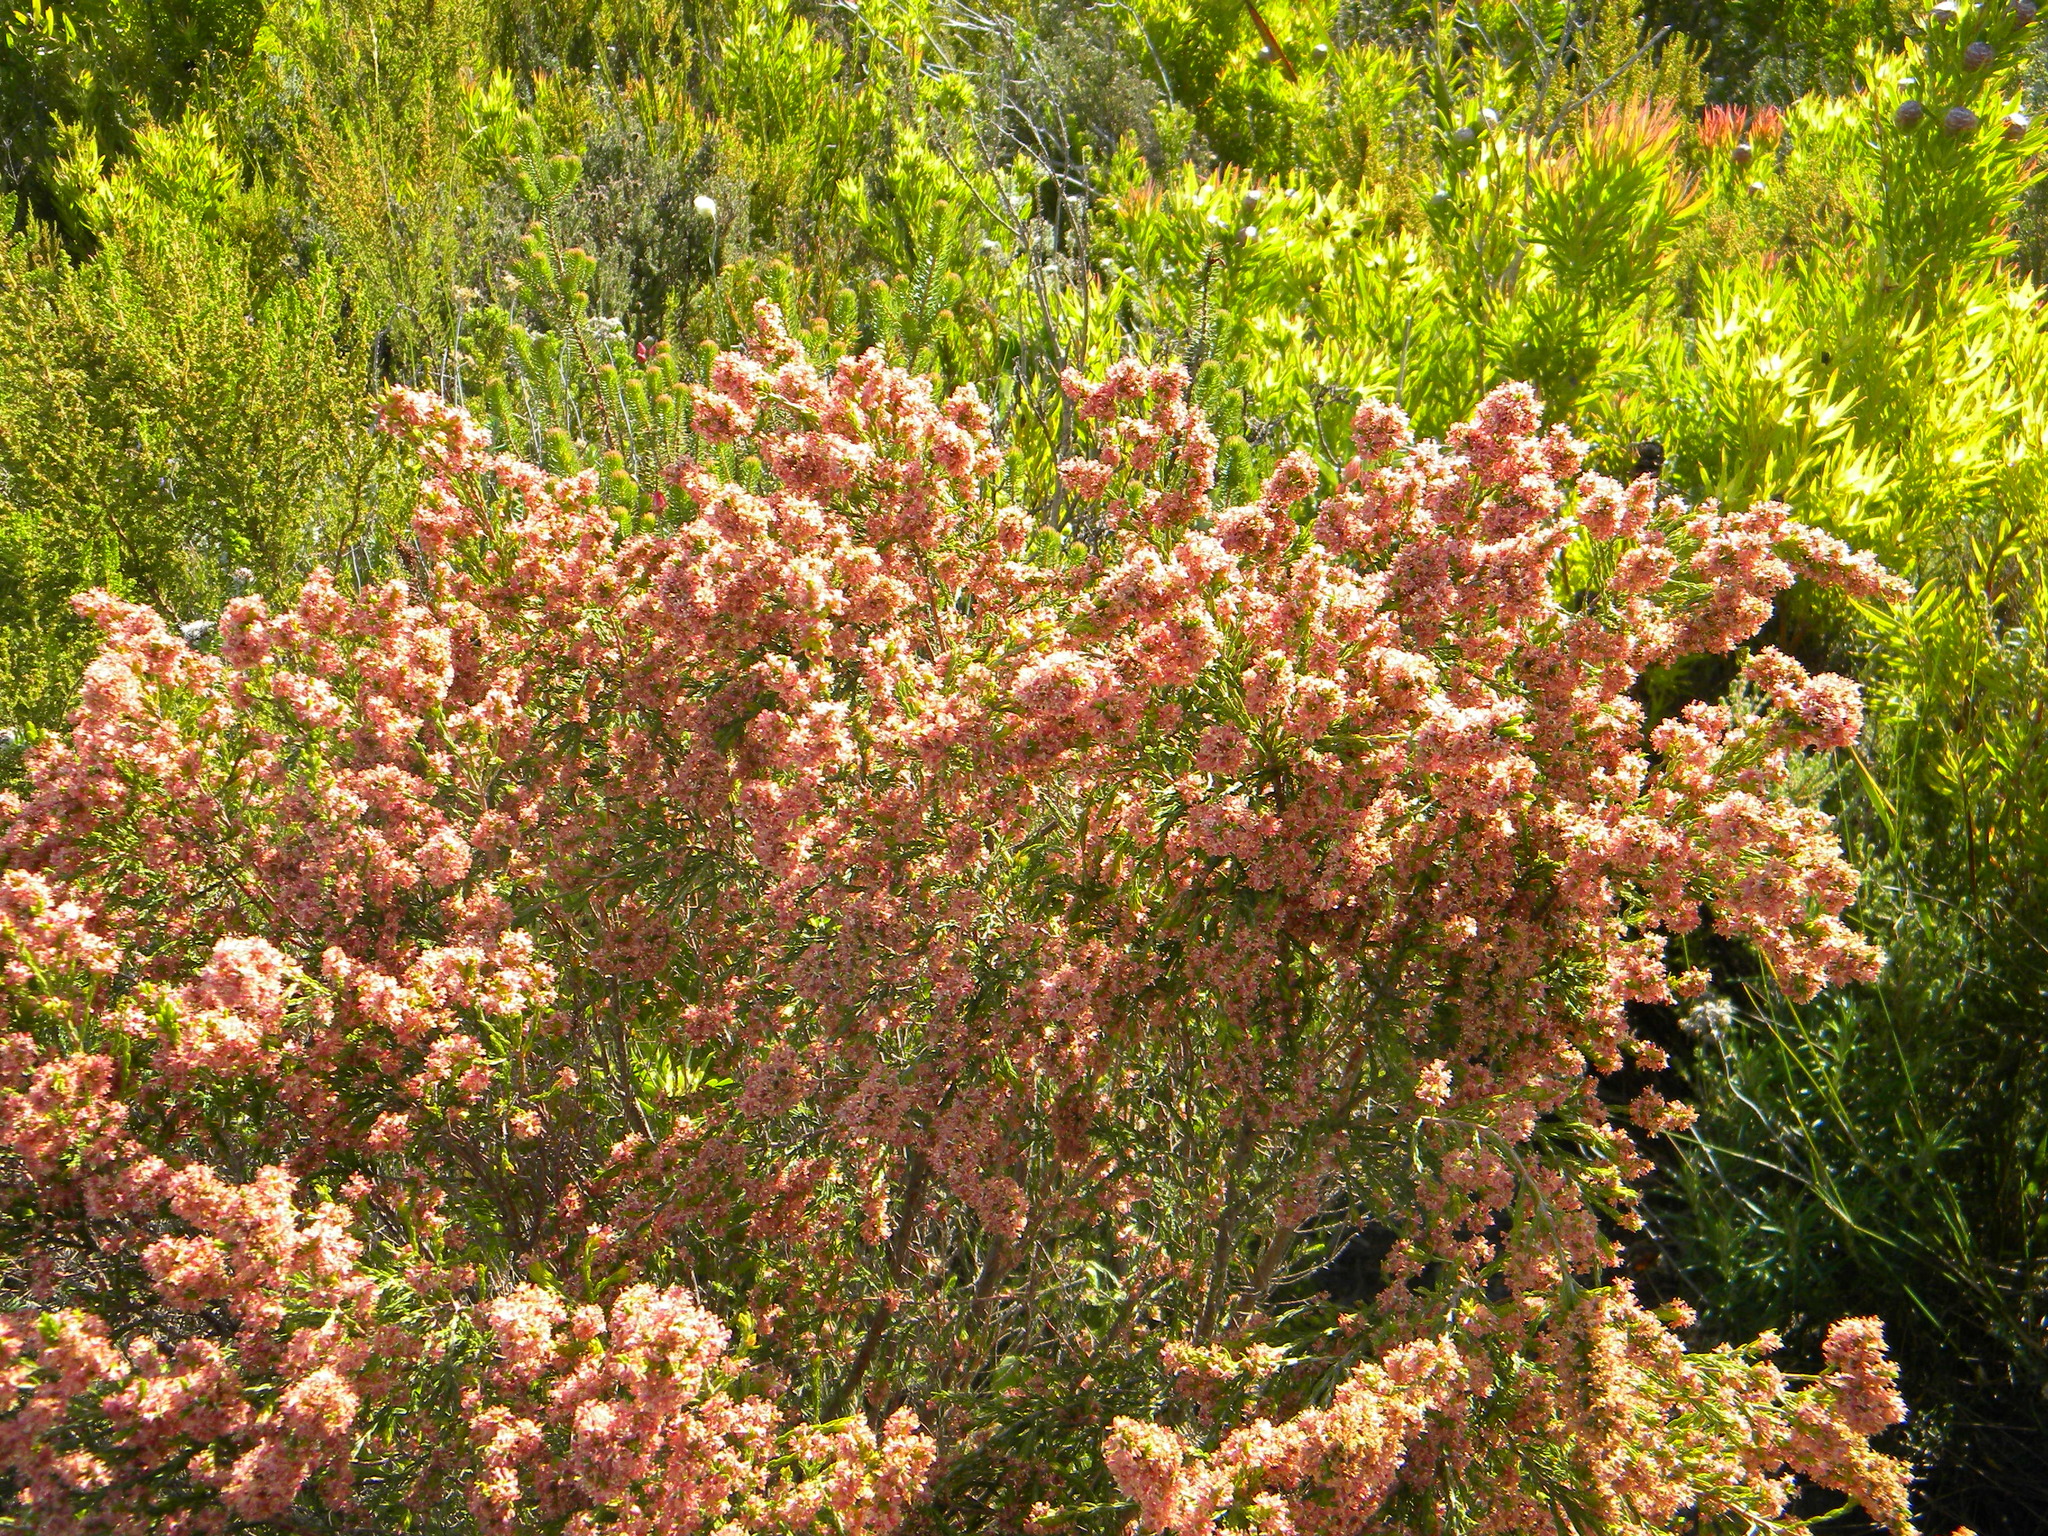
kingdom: Plantae
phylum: Tracheophyta
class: Magnoliopsida
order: Malvales
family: Thymelaeaceae
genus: Passerina
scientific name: Passerina corymbosa
